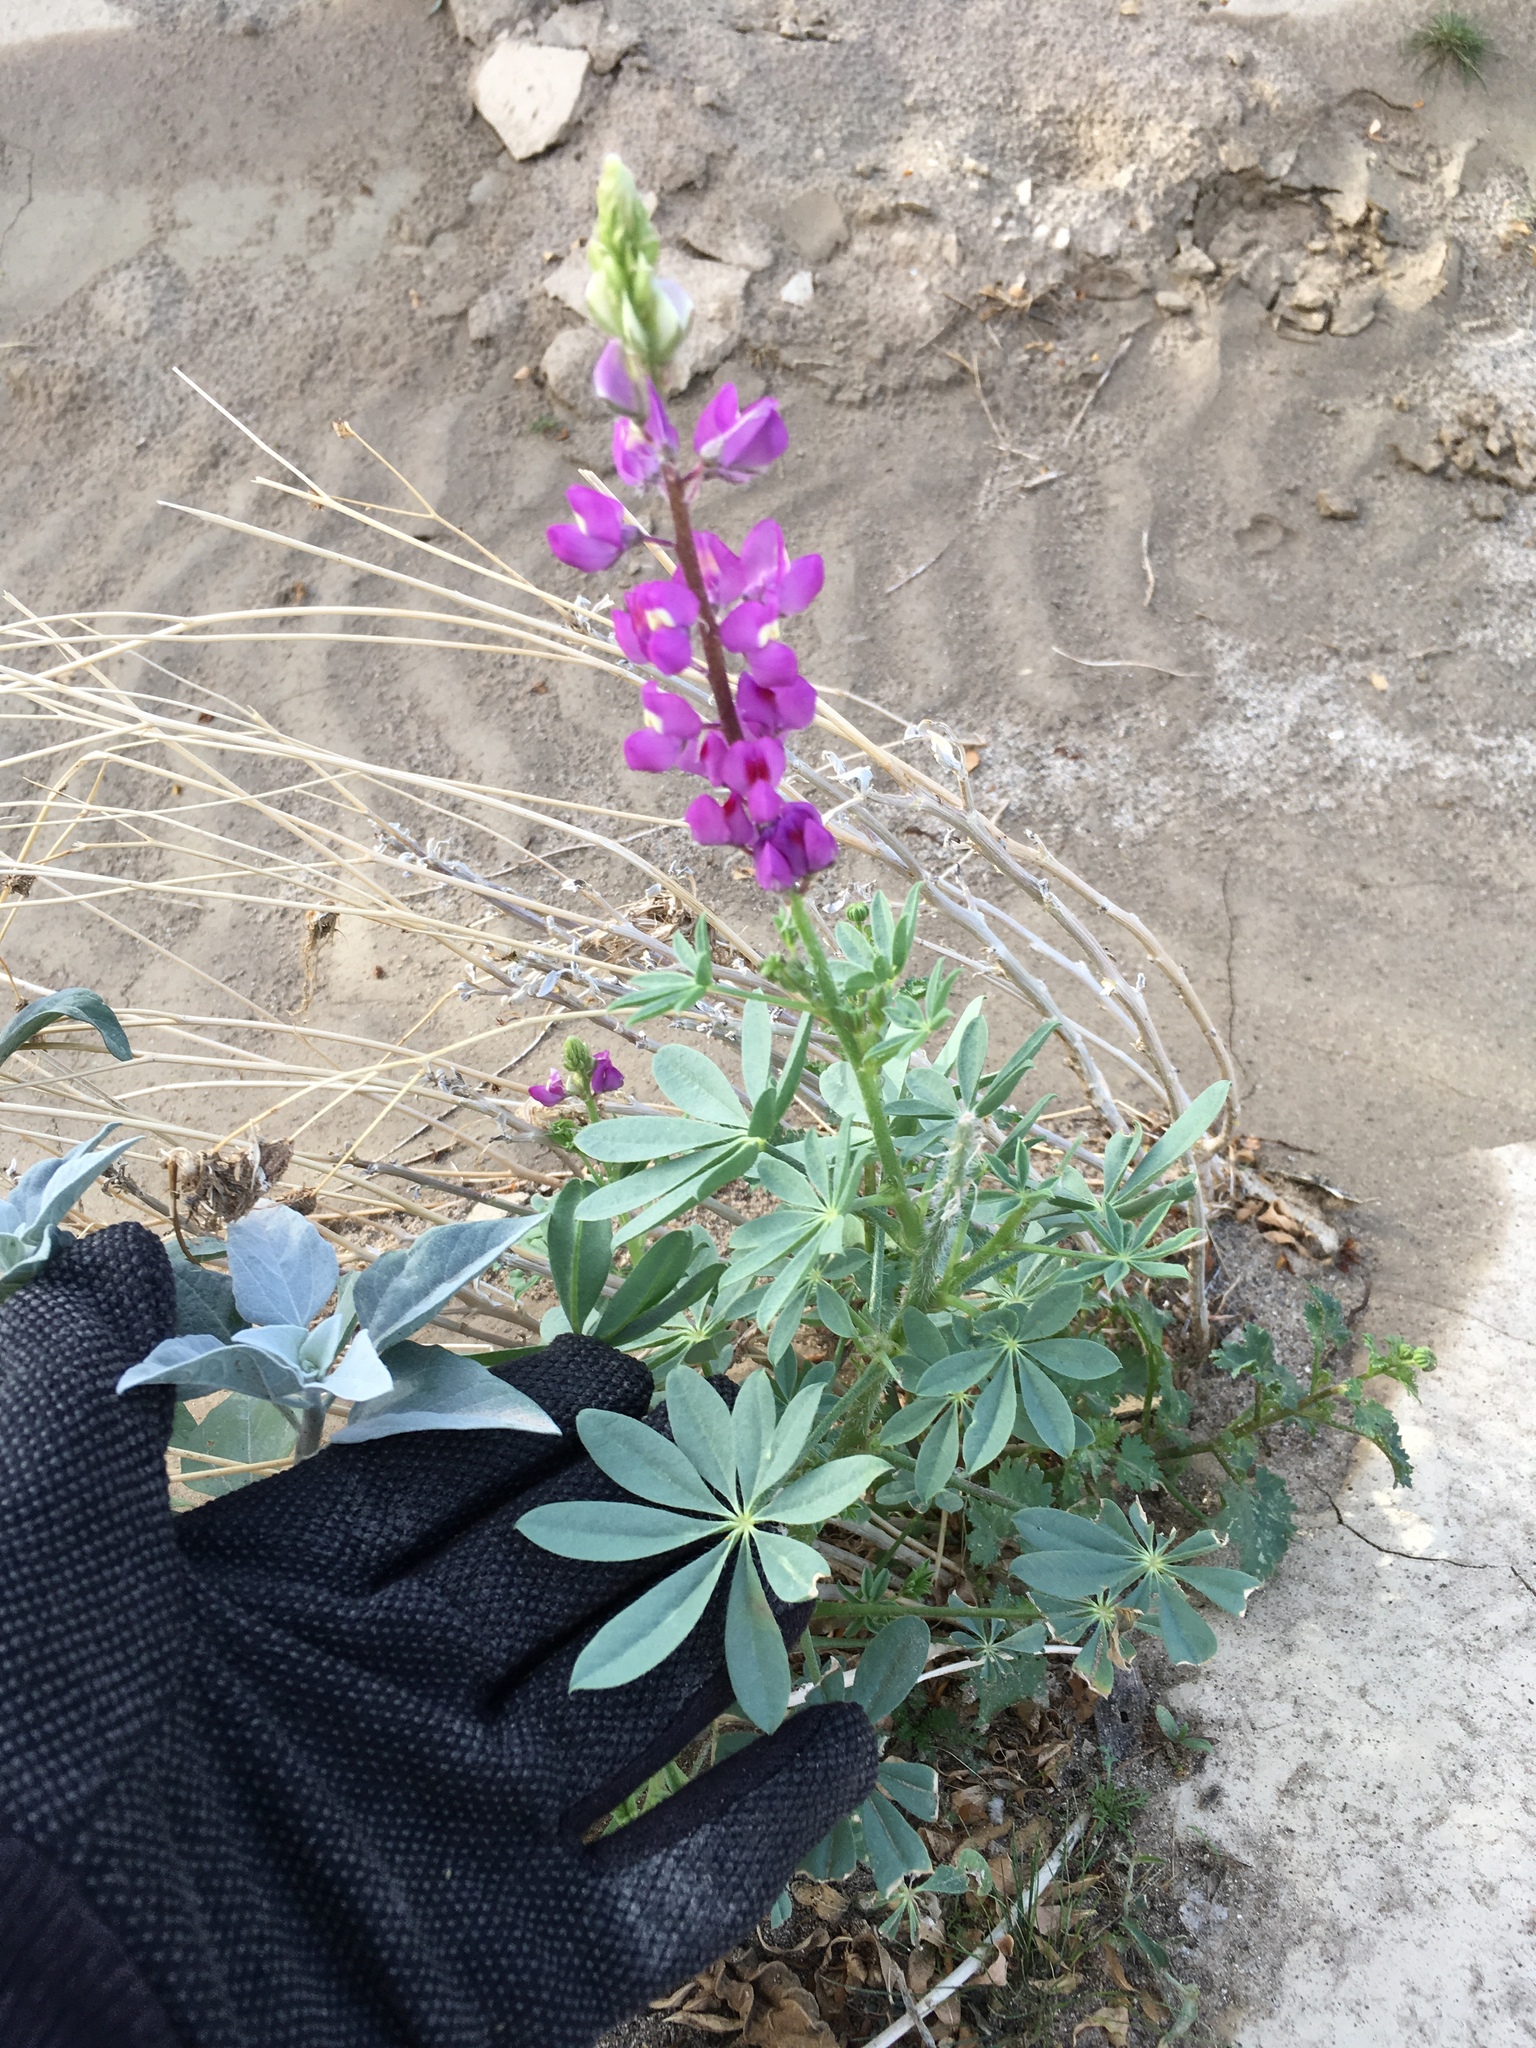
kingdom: Plantae
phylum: Tracheophyta
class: Magnoliopsida
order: Fabales
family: Fabaceae
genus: Lupinus
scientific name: Lupinus arizonicus
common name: Arizona lupine
